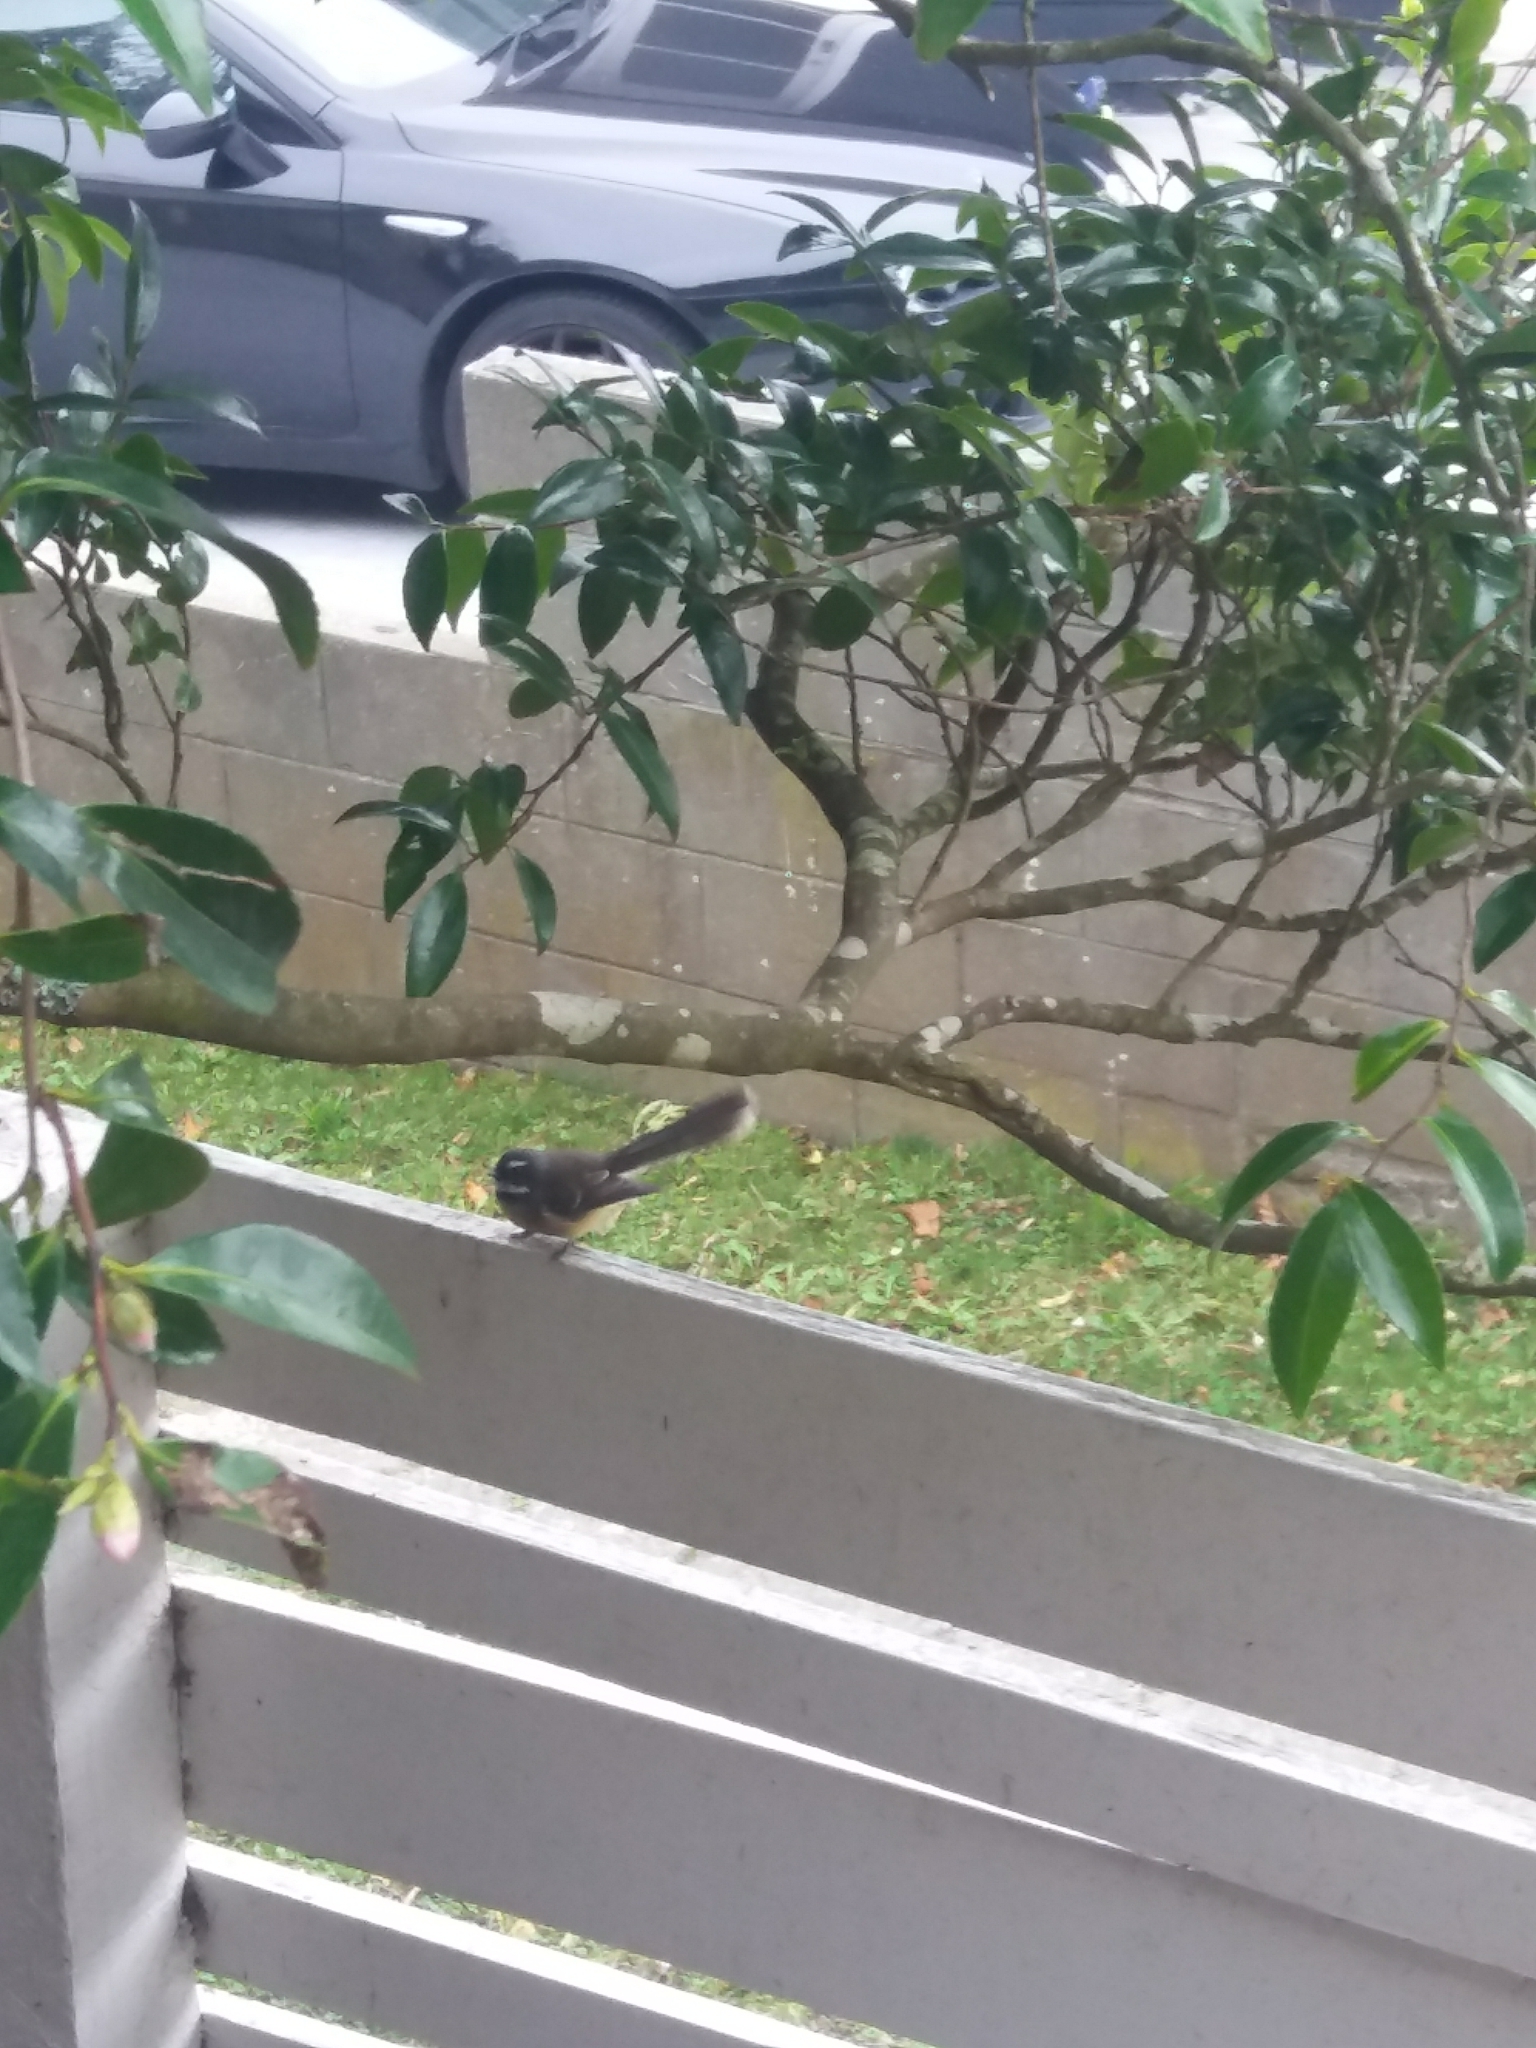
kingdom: Animalia
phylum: Chordata
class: Aves
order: Passeriformes
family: Rhipiduridae
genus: Rhipidura
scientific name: Rhipidura fuliginosa
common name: New zealand fantail
